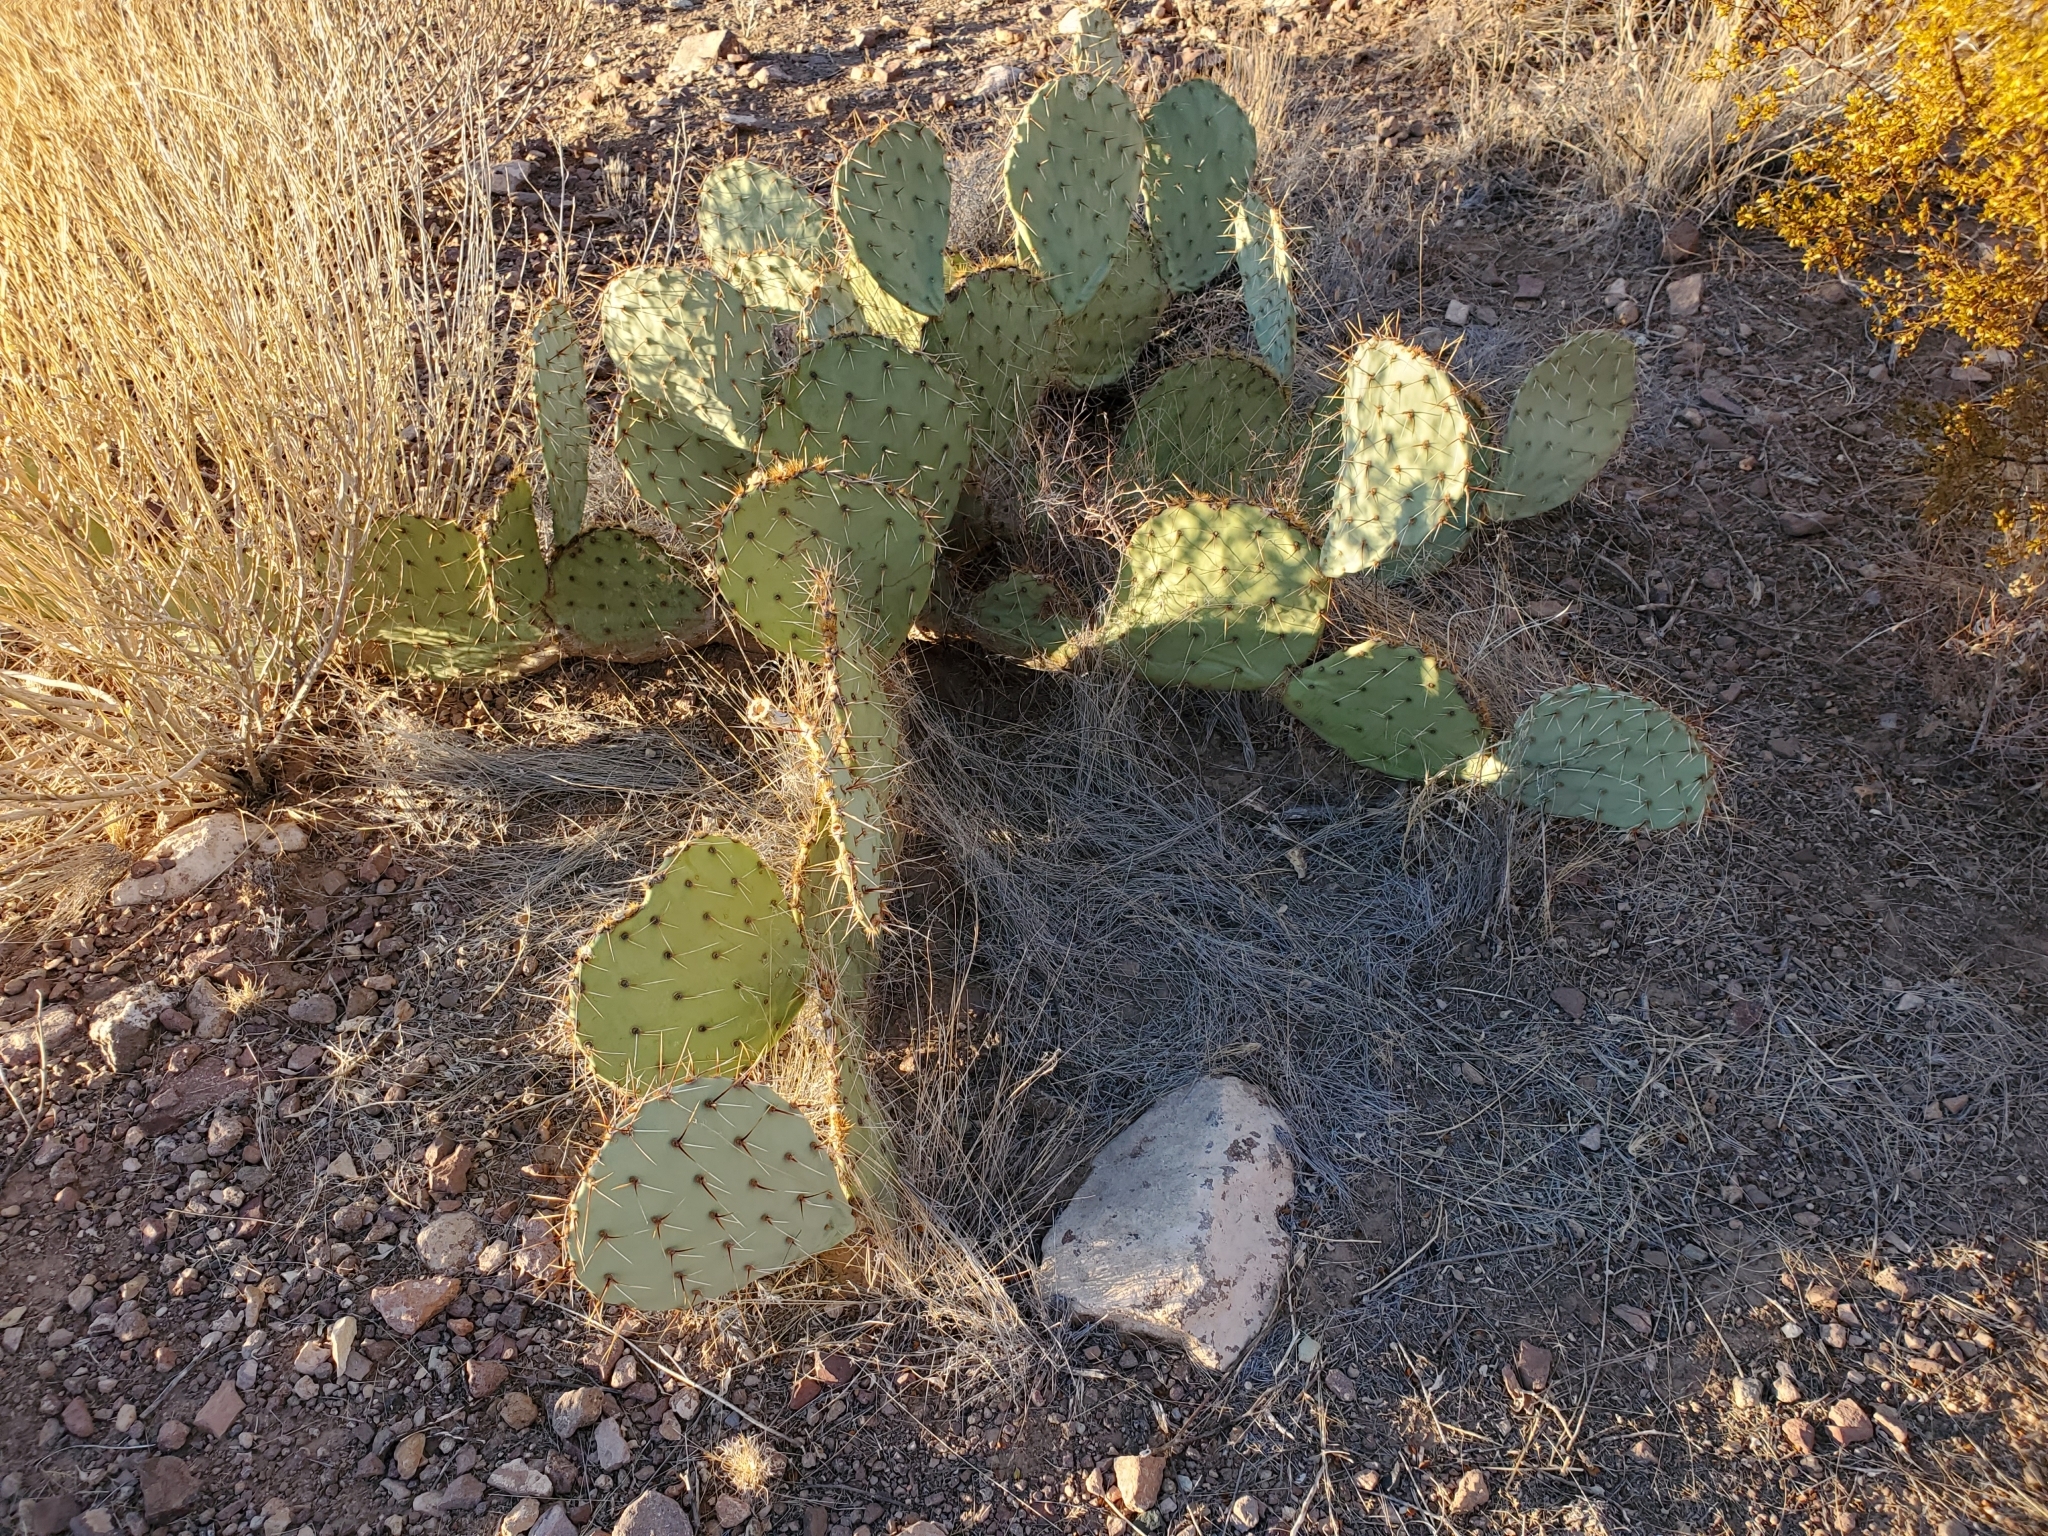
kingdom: Plantae
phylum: Tracheophyta
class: Magnoliopsida
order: Caryophyllales
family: Cactaceae
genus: Opuntia
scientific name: Opuntia engelmannii
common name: Cactus-apple
